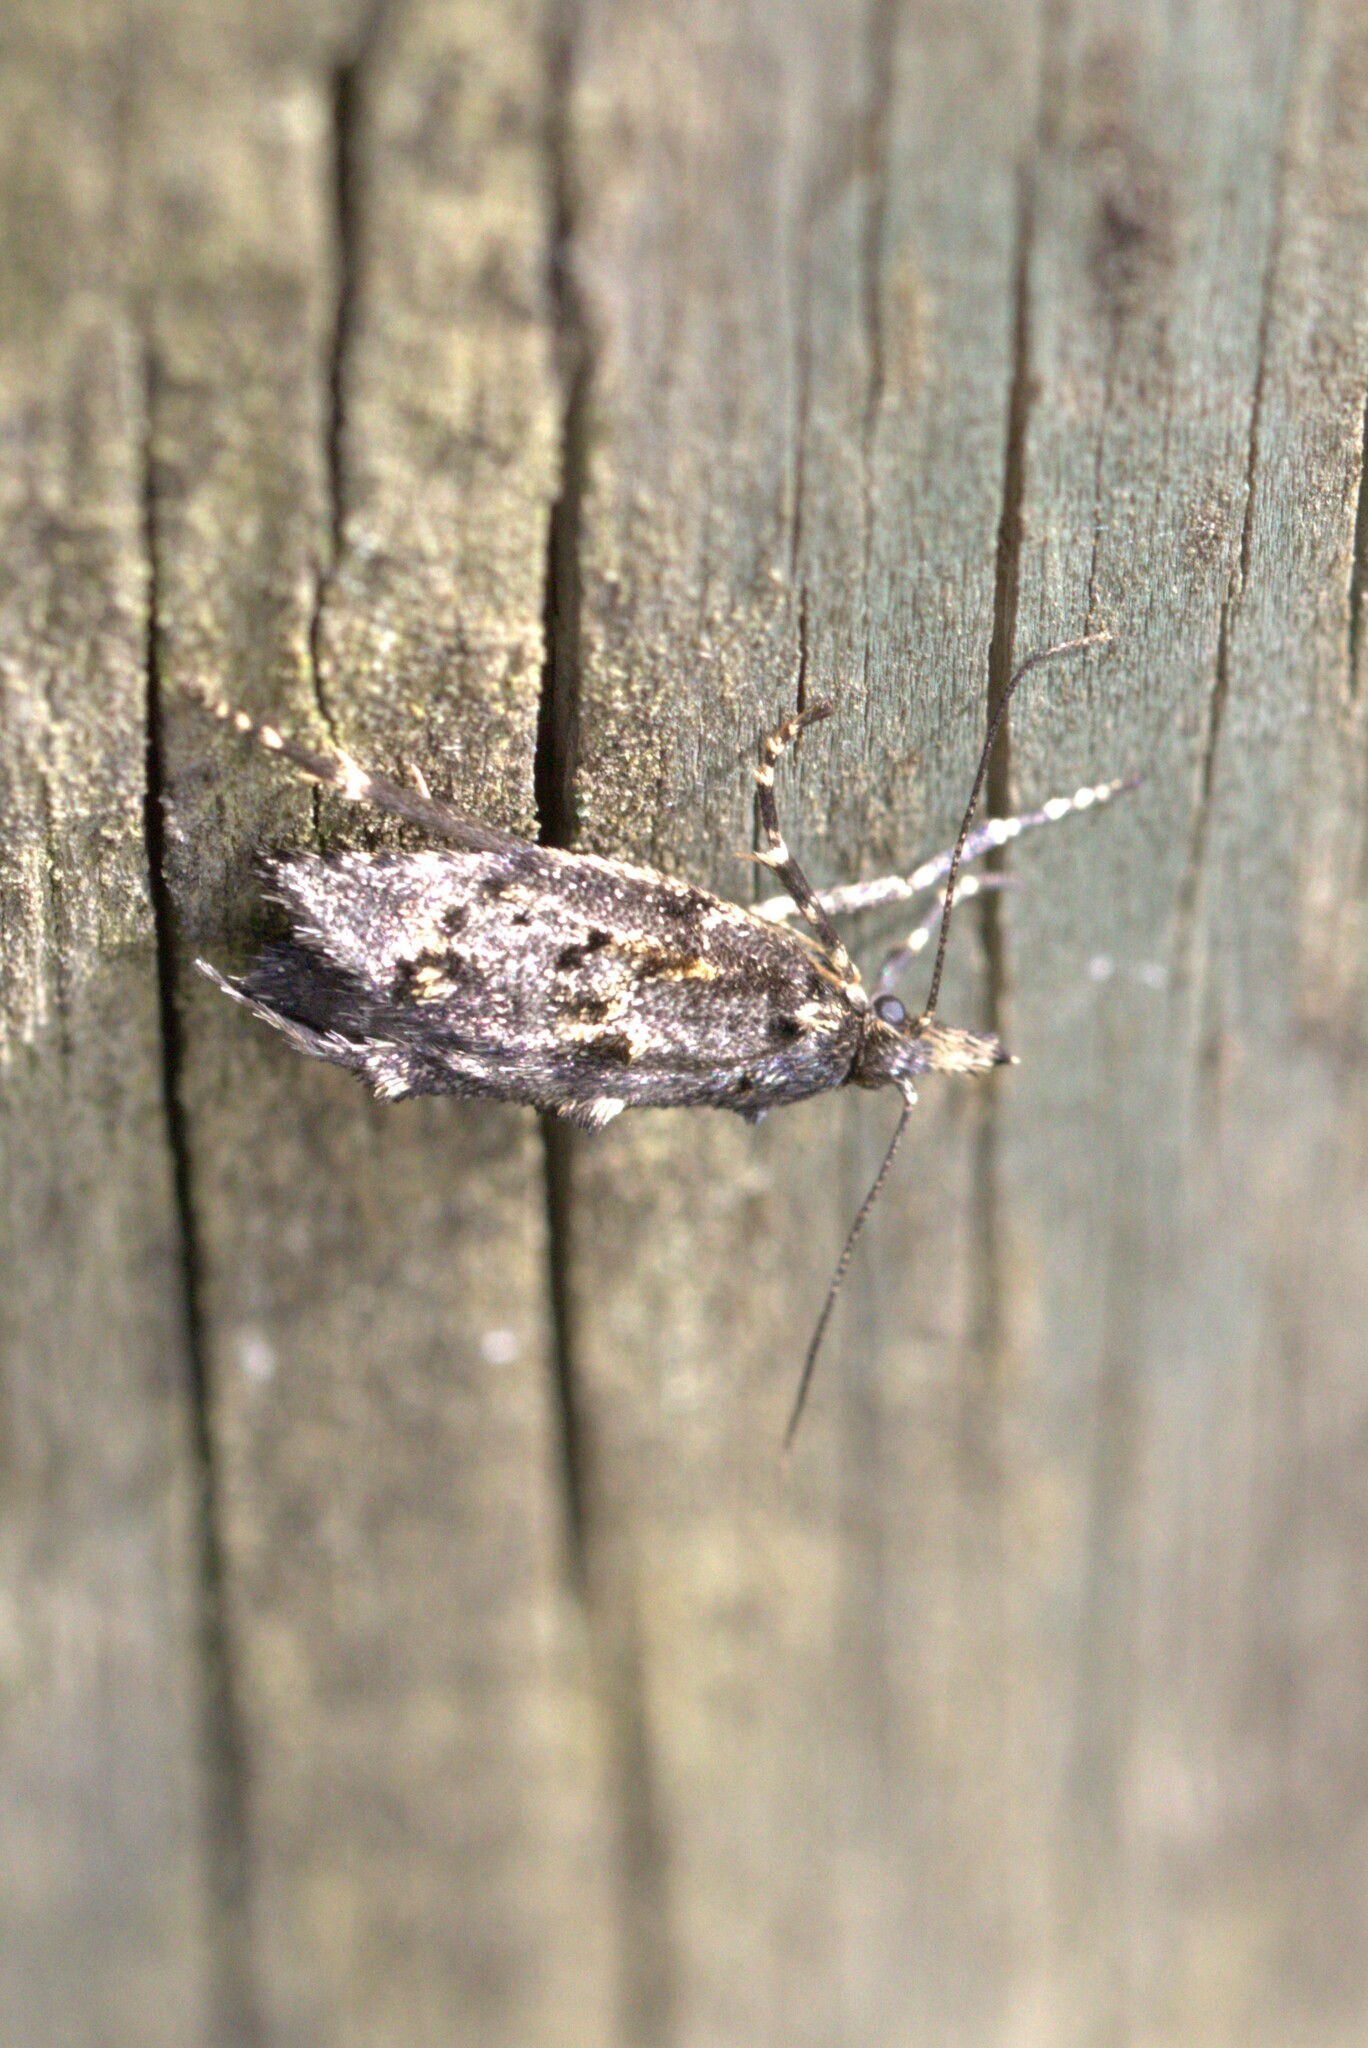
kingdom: Animalia
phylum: Arthropoda
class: Insecta
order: Lepidoptera
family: Lypusidae
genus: Diurnea
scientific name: Diurnea fagella
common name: March tubic
